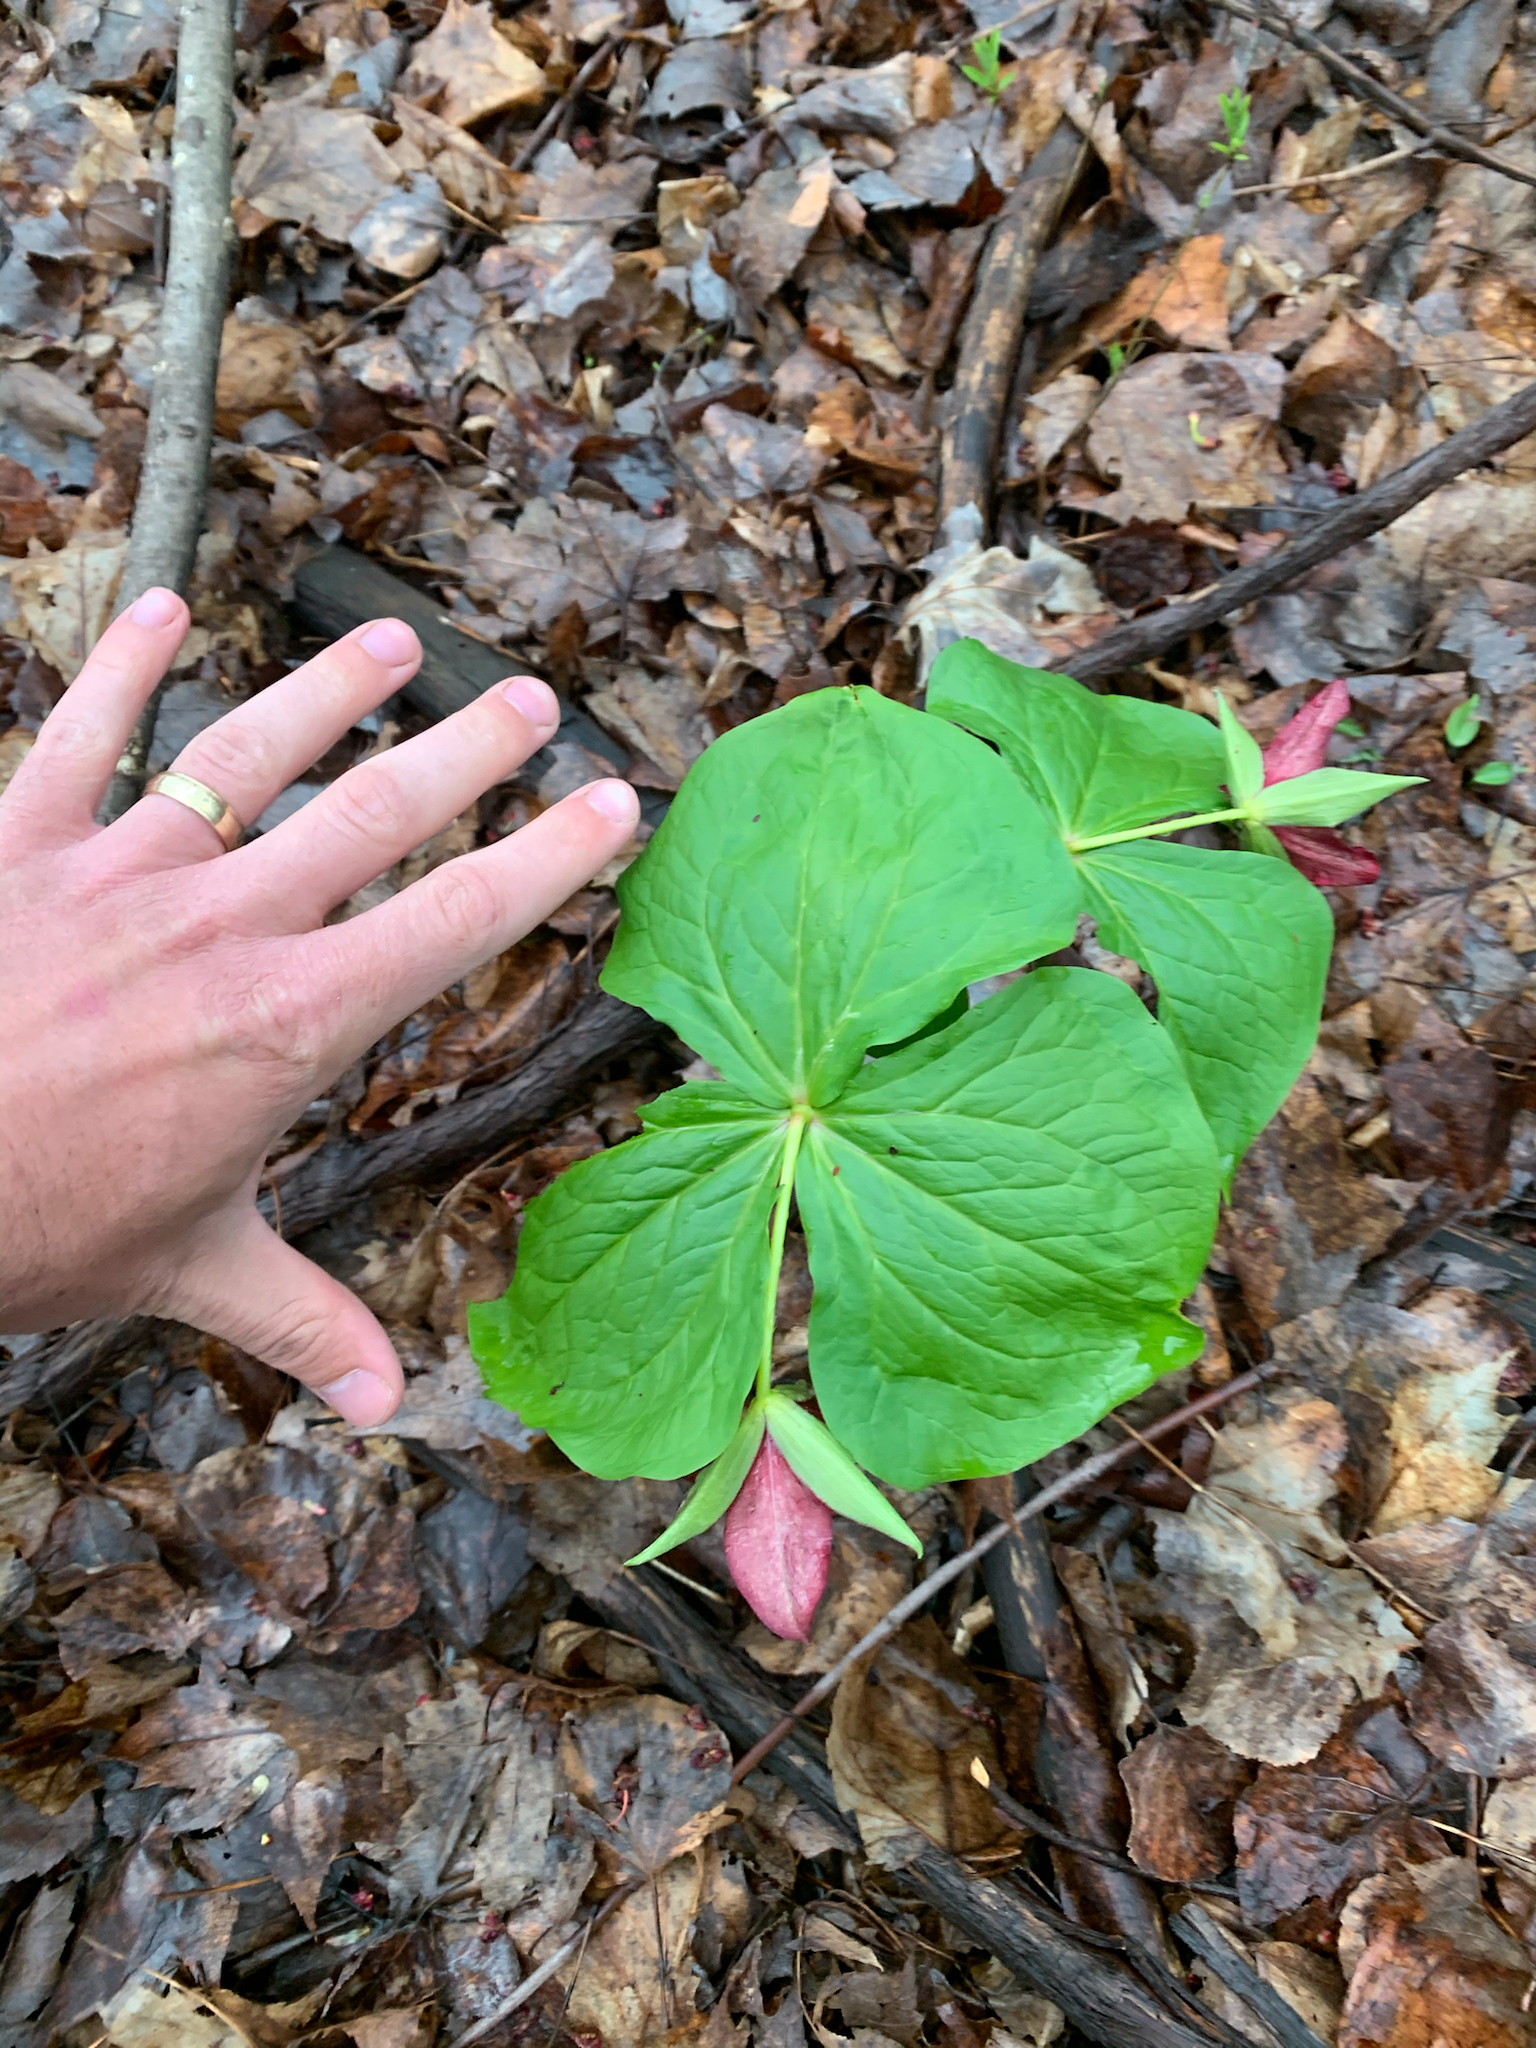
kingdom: Plantae
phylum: Tracheophyta
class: Liliopsida
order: Liliales
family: Melanthiaceae
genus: Trillium
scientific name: Trillium erectum
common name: Purple trillium
